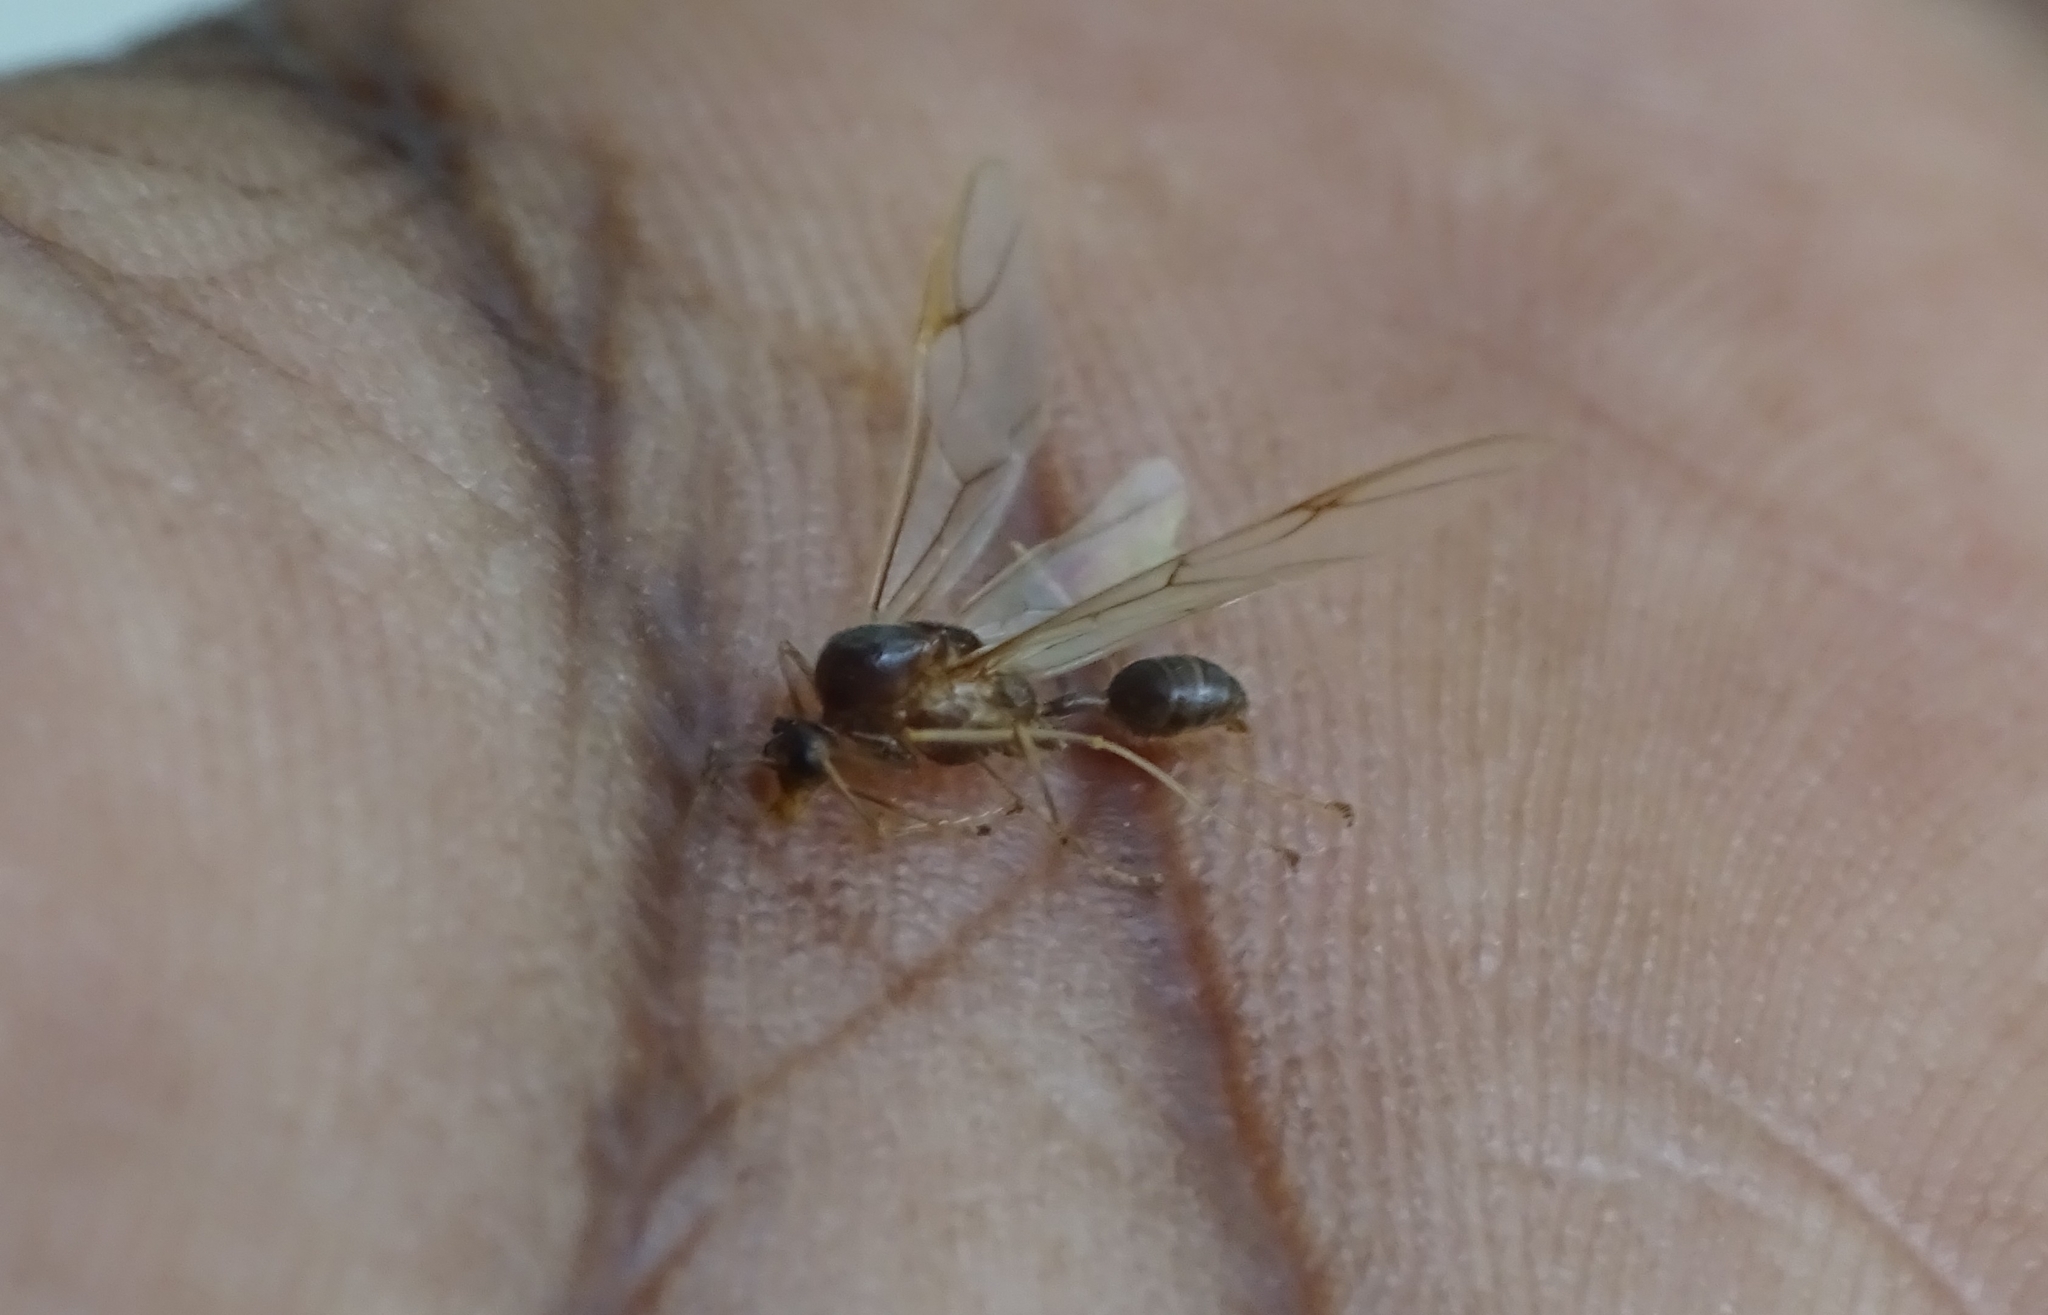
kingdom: Animalia
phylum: Arthropoda
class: Insecta
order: Hymenoptera
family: Formicidae
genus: Oecophylla
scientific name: Oecophylla smaragdina
